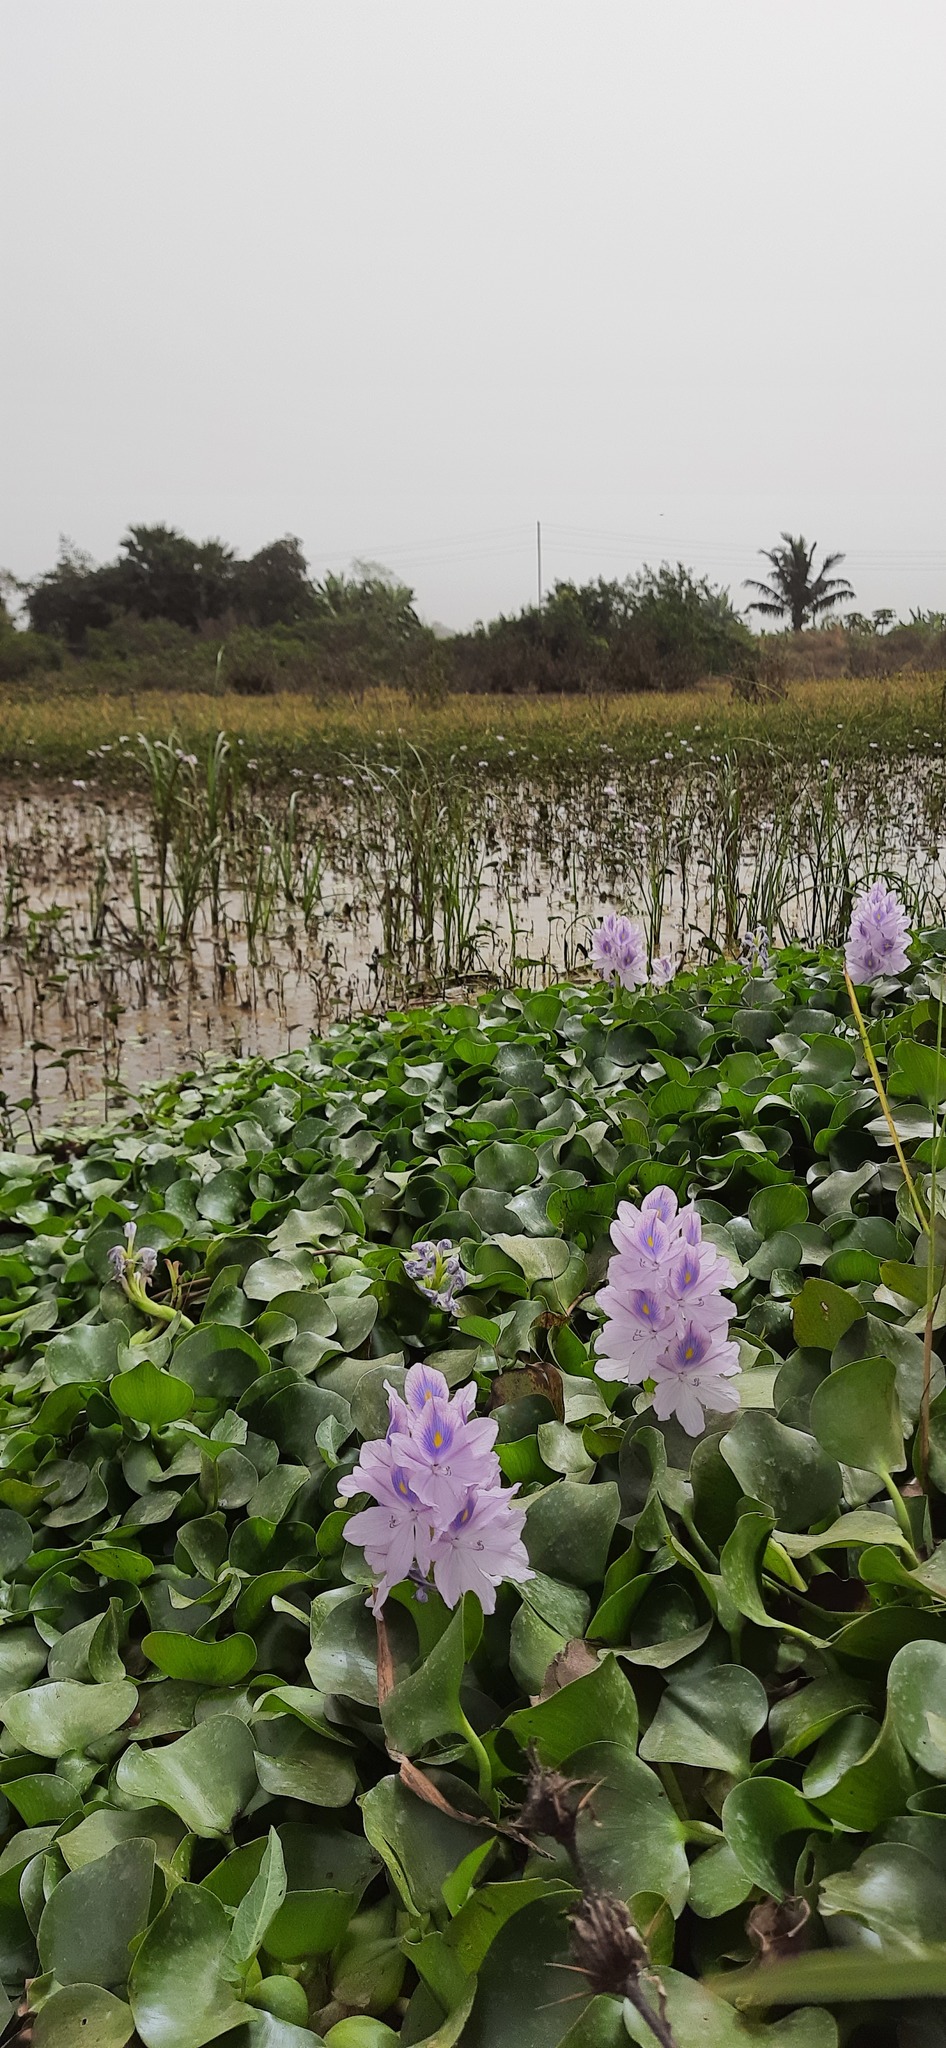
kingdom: Plantae
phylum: Tracheophyta
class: Liliopsida
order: Commelinales
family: Pontederiaceae
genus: Pontederia
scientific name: Pontederia crassipes
